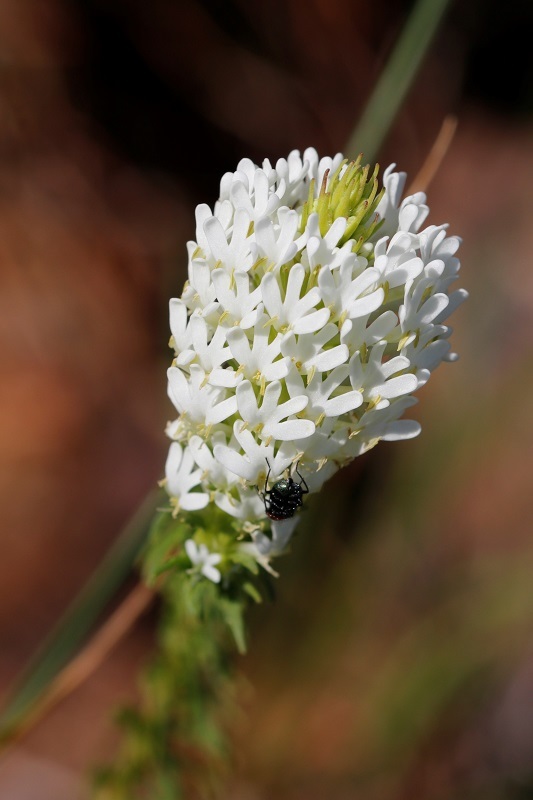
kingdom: Plantae
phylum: Tracheophyta
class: Magnoliopsida
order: Lamiales
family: Scrophulariaceae
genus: Dischisma
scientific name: Dischisma ciliatum
